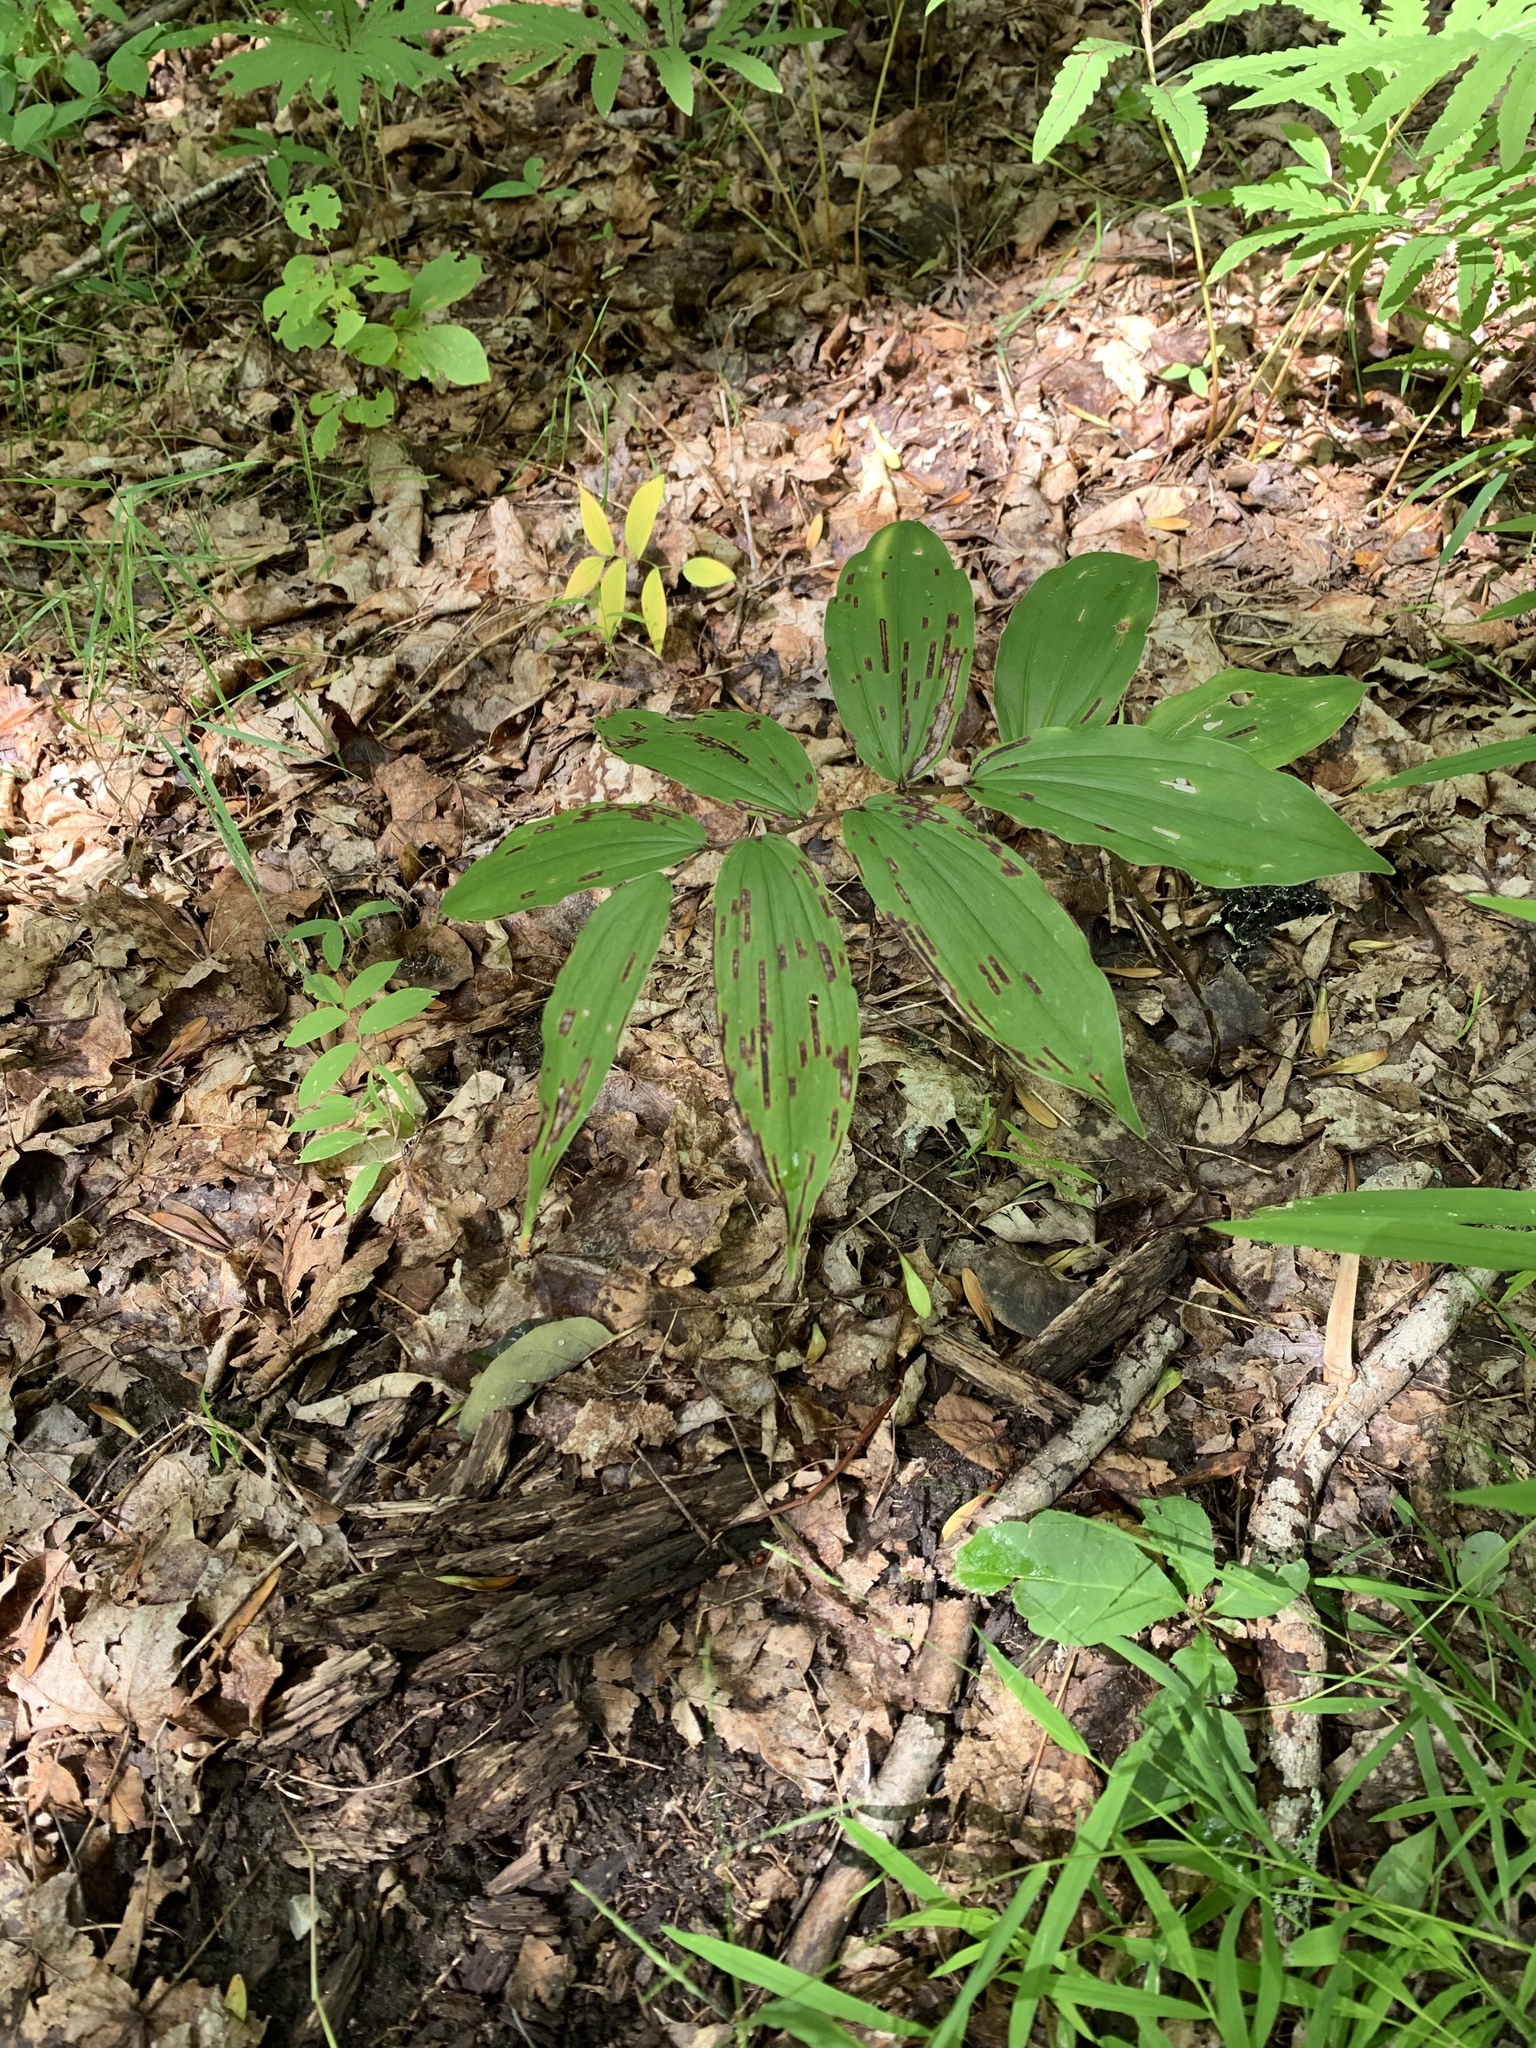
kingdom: Plantae
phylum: Tracheophyta
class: Liliopsida
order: Asparagales
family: Asparagaceae
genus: Maianthemum
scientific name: Maianthemum racemosum
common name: False spikenard
